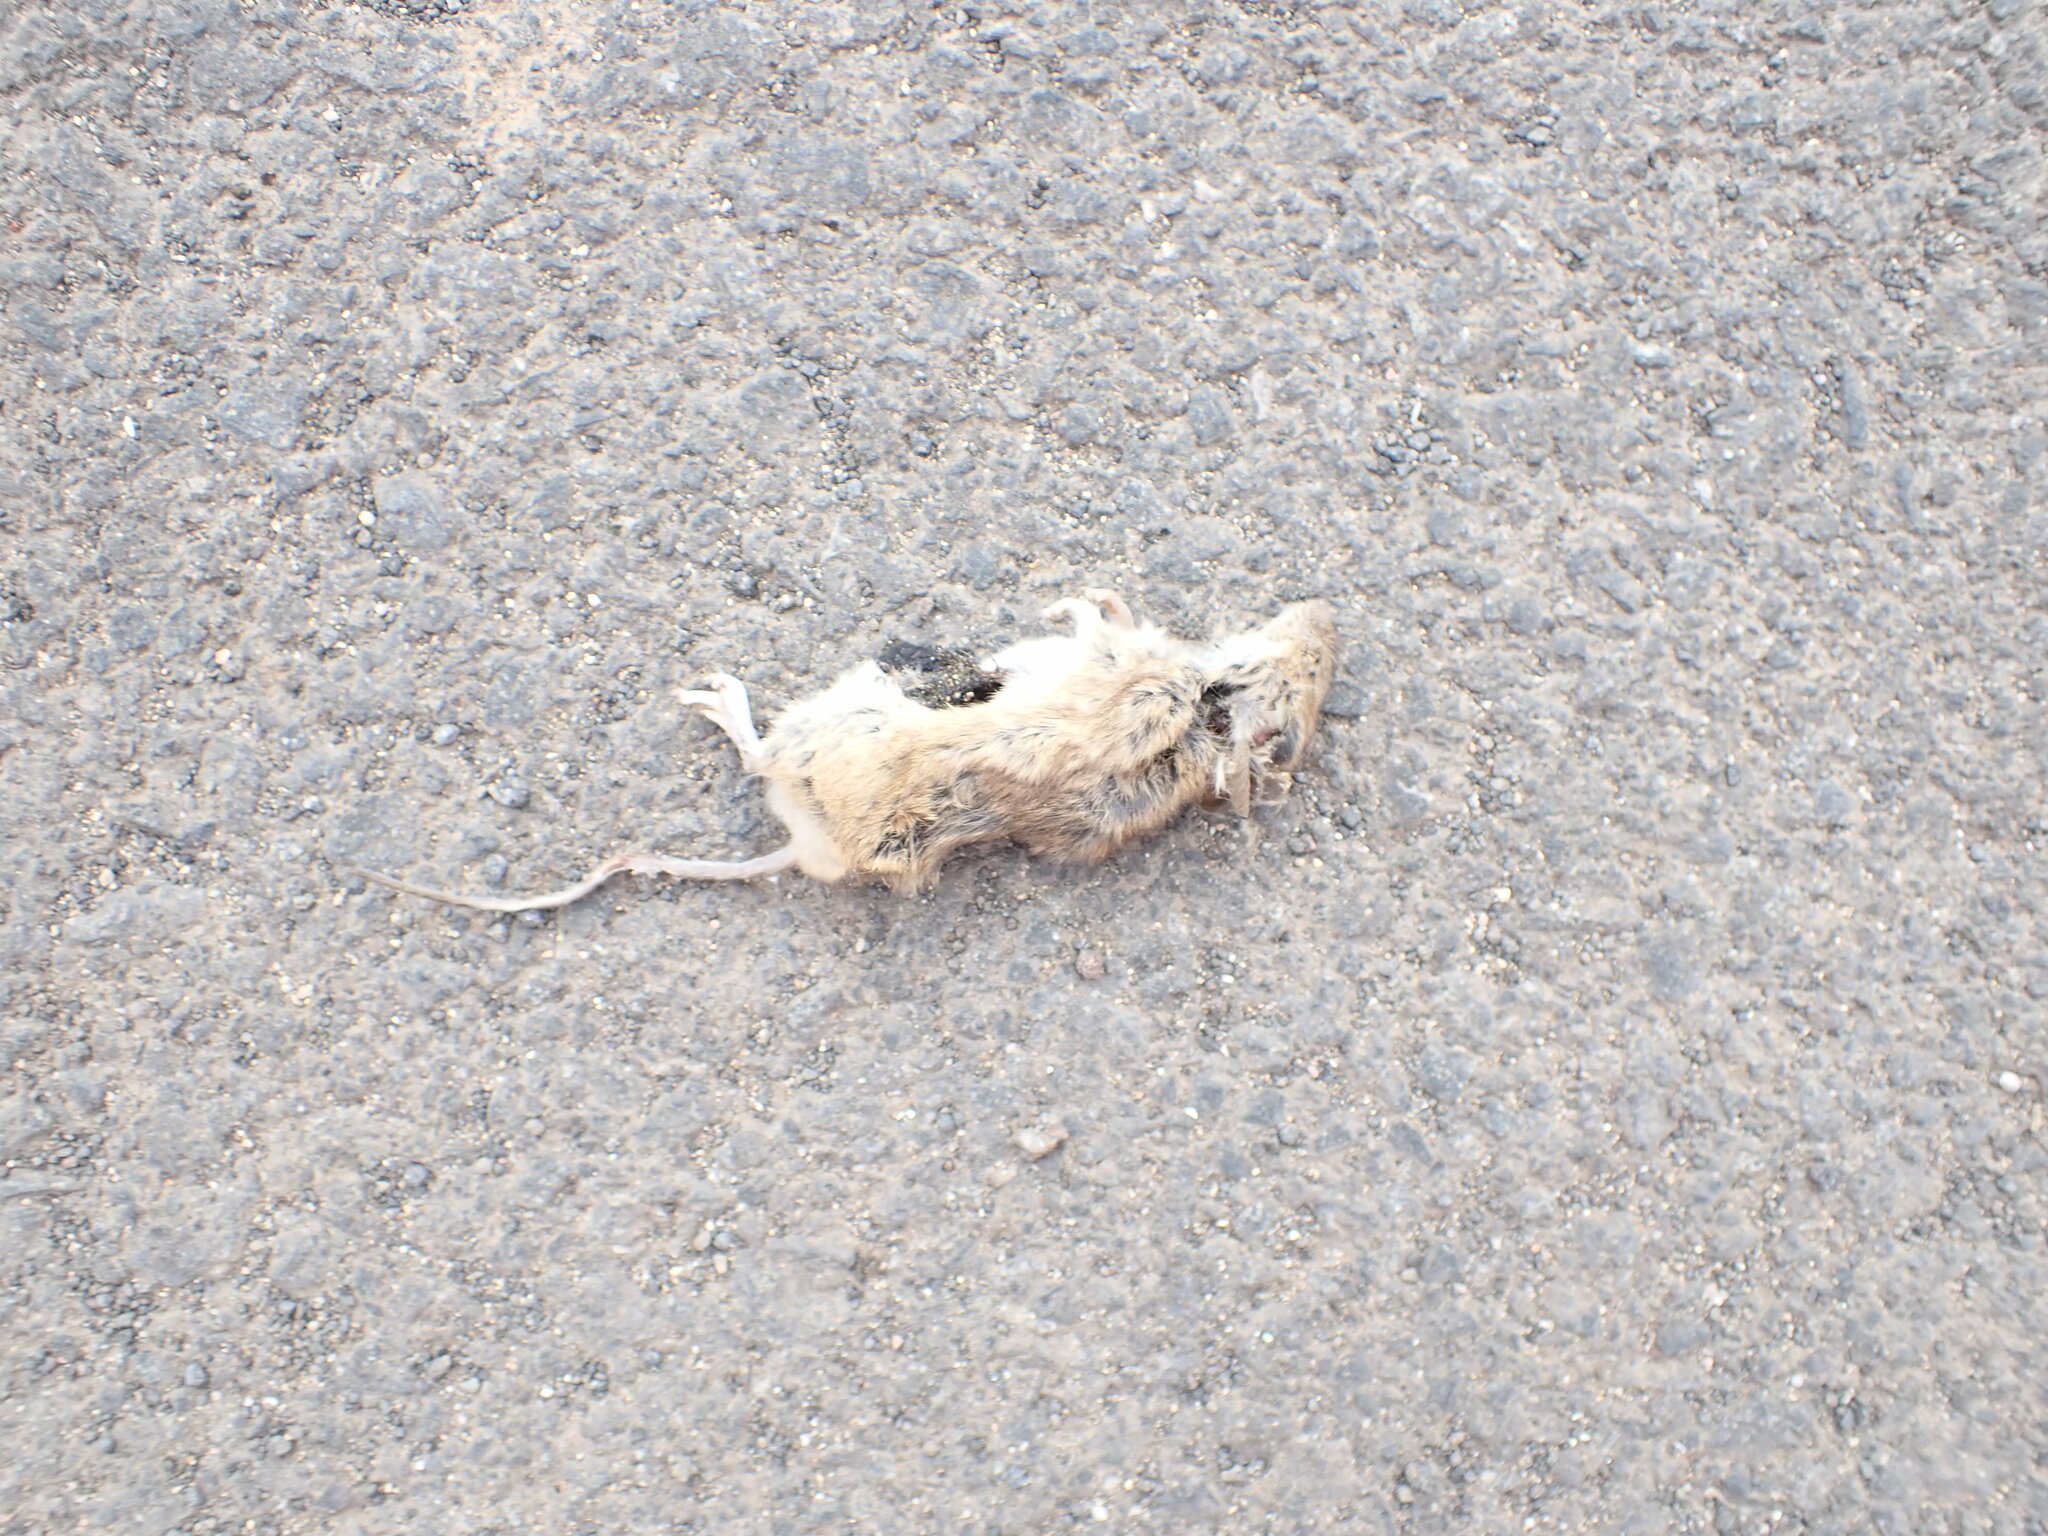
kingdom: Animalia
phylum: Chordata
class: Mammalia
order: Rodentia
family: Muridae
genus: Mus
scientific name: Mus musculus
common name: House mouse
